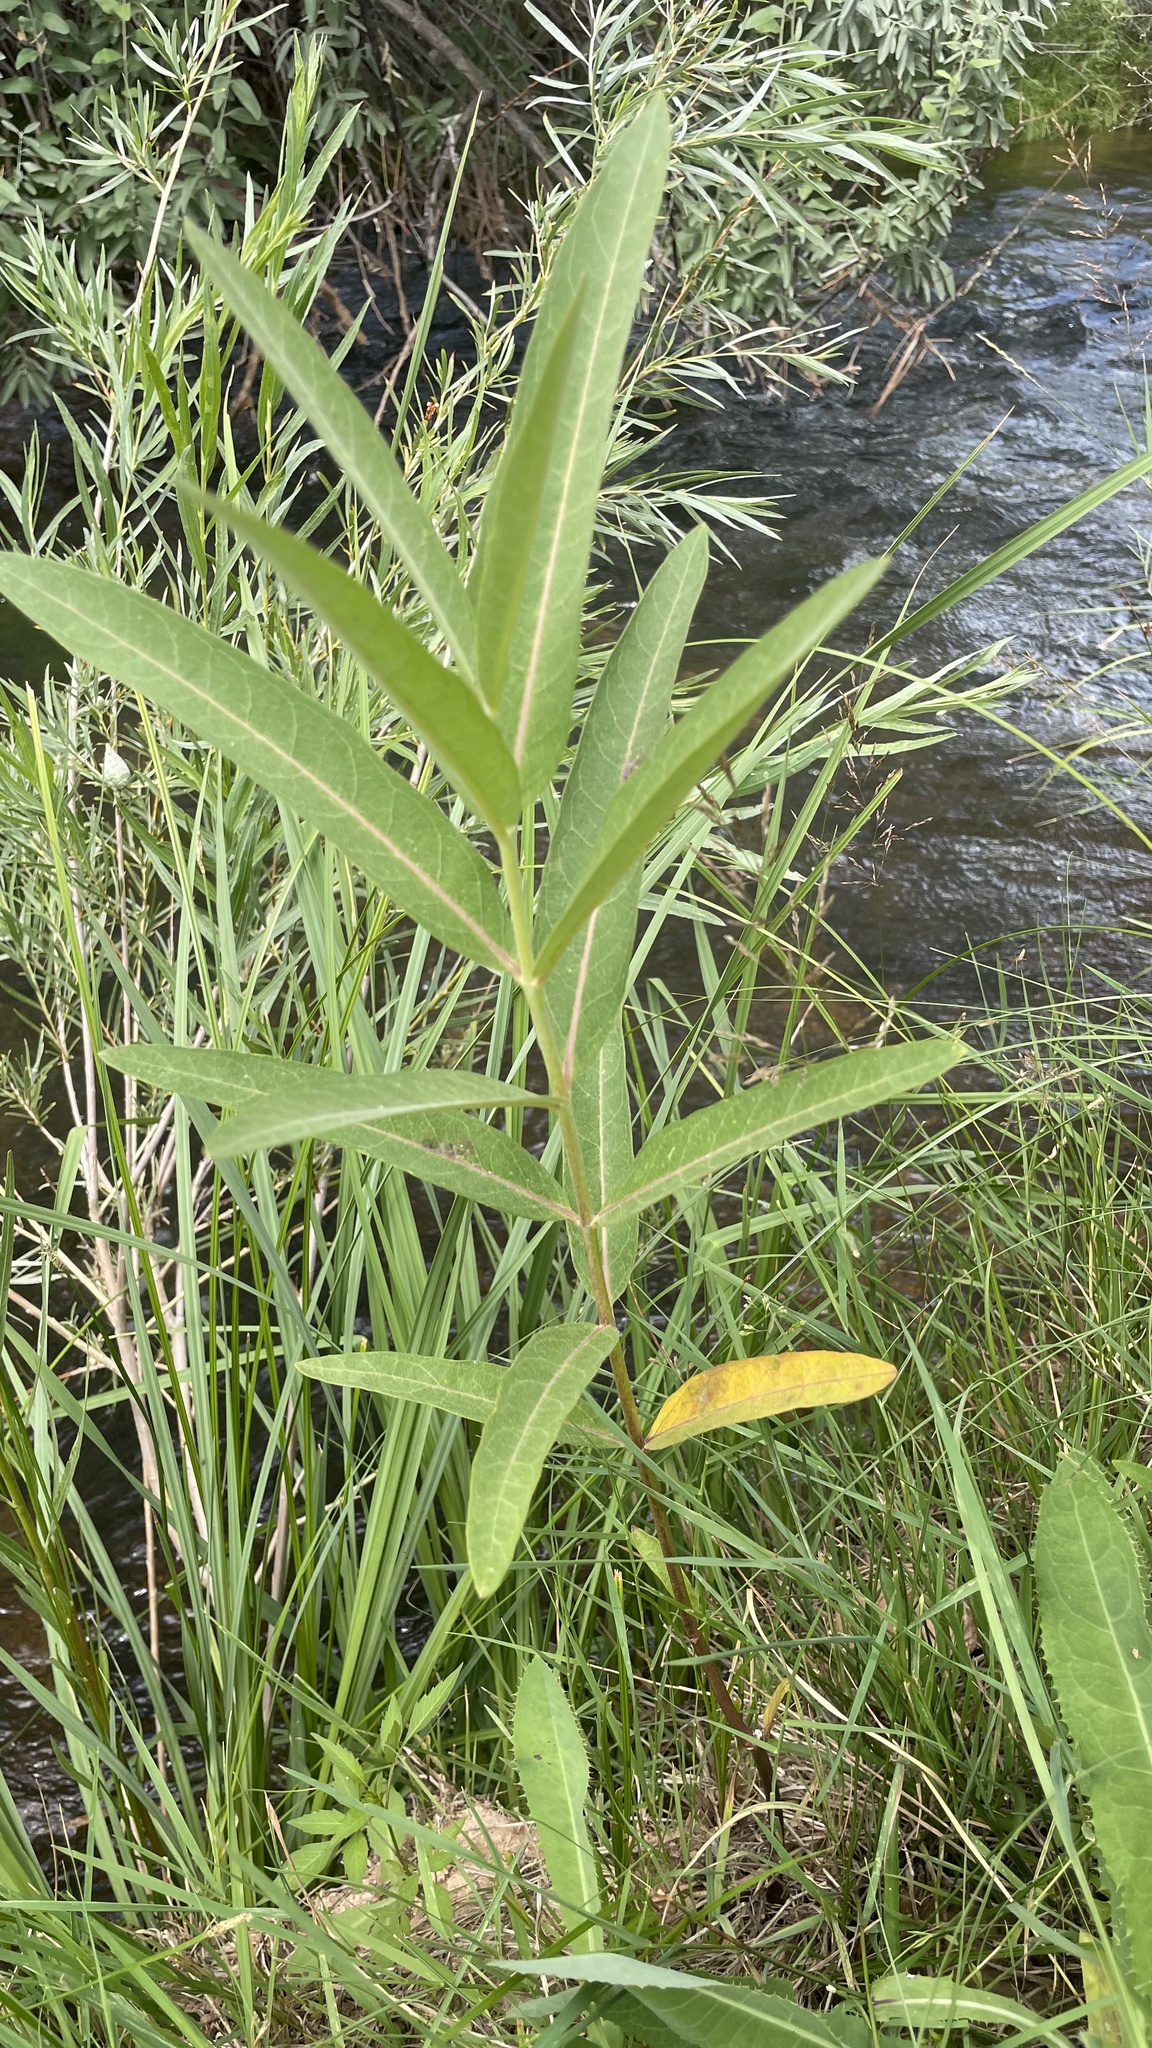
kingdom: Plantae
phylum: Tracheophyta
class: Magnoliopsida
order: Gentianales
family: Apocynaceae
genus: Asclepias
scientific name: Asclepias speciosa
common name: Showy milkweed
